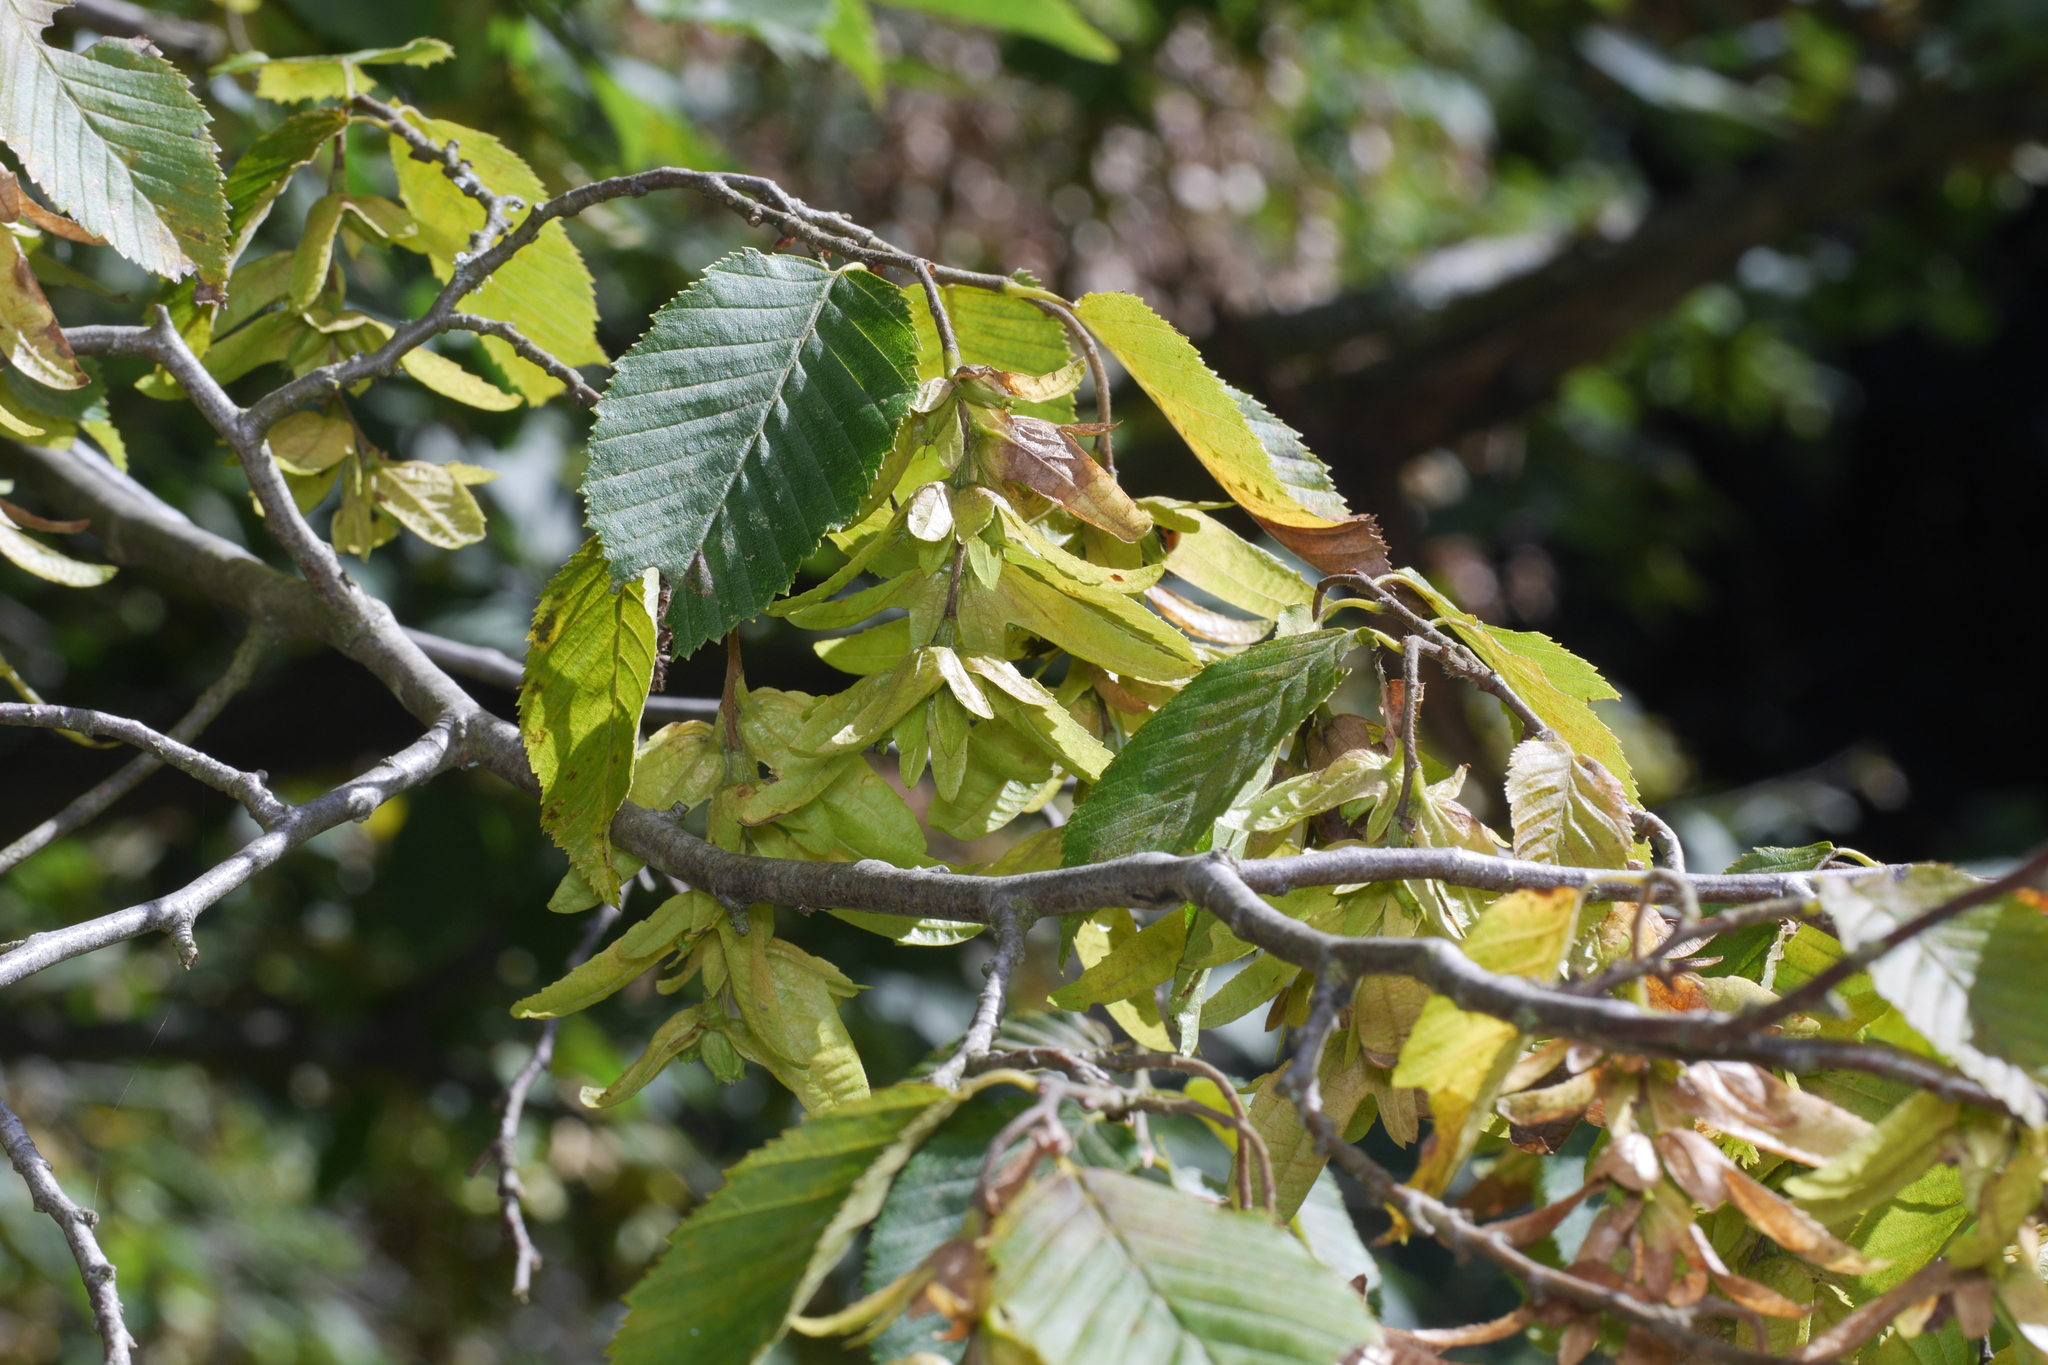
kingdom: Plantae
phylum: Tracheophyta
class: Magnoliopsida
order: Fagales
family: Betulaceae
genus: Carpinus
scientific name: Carpinus betulus
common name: Hornbeam
